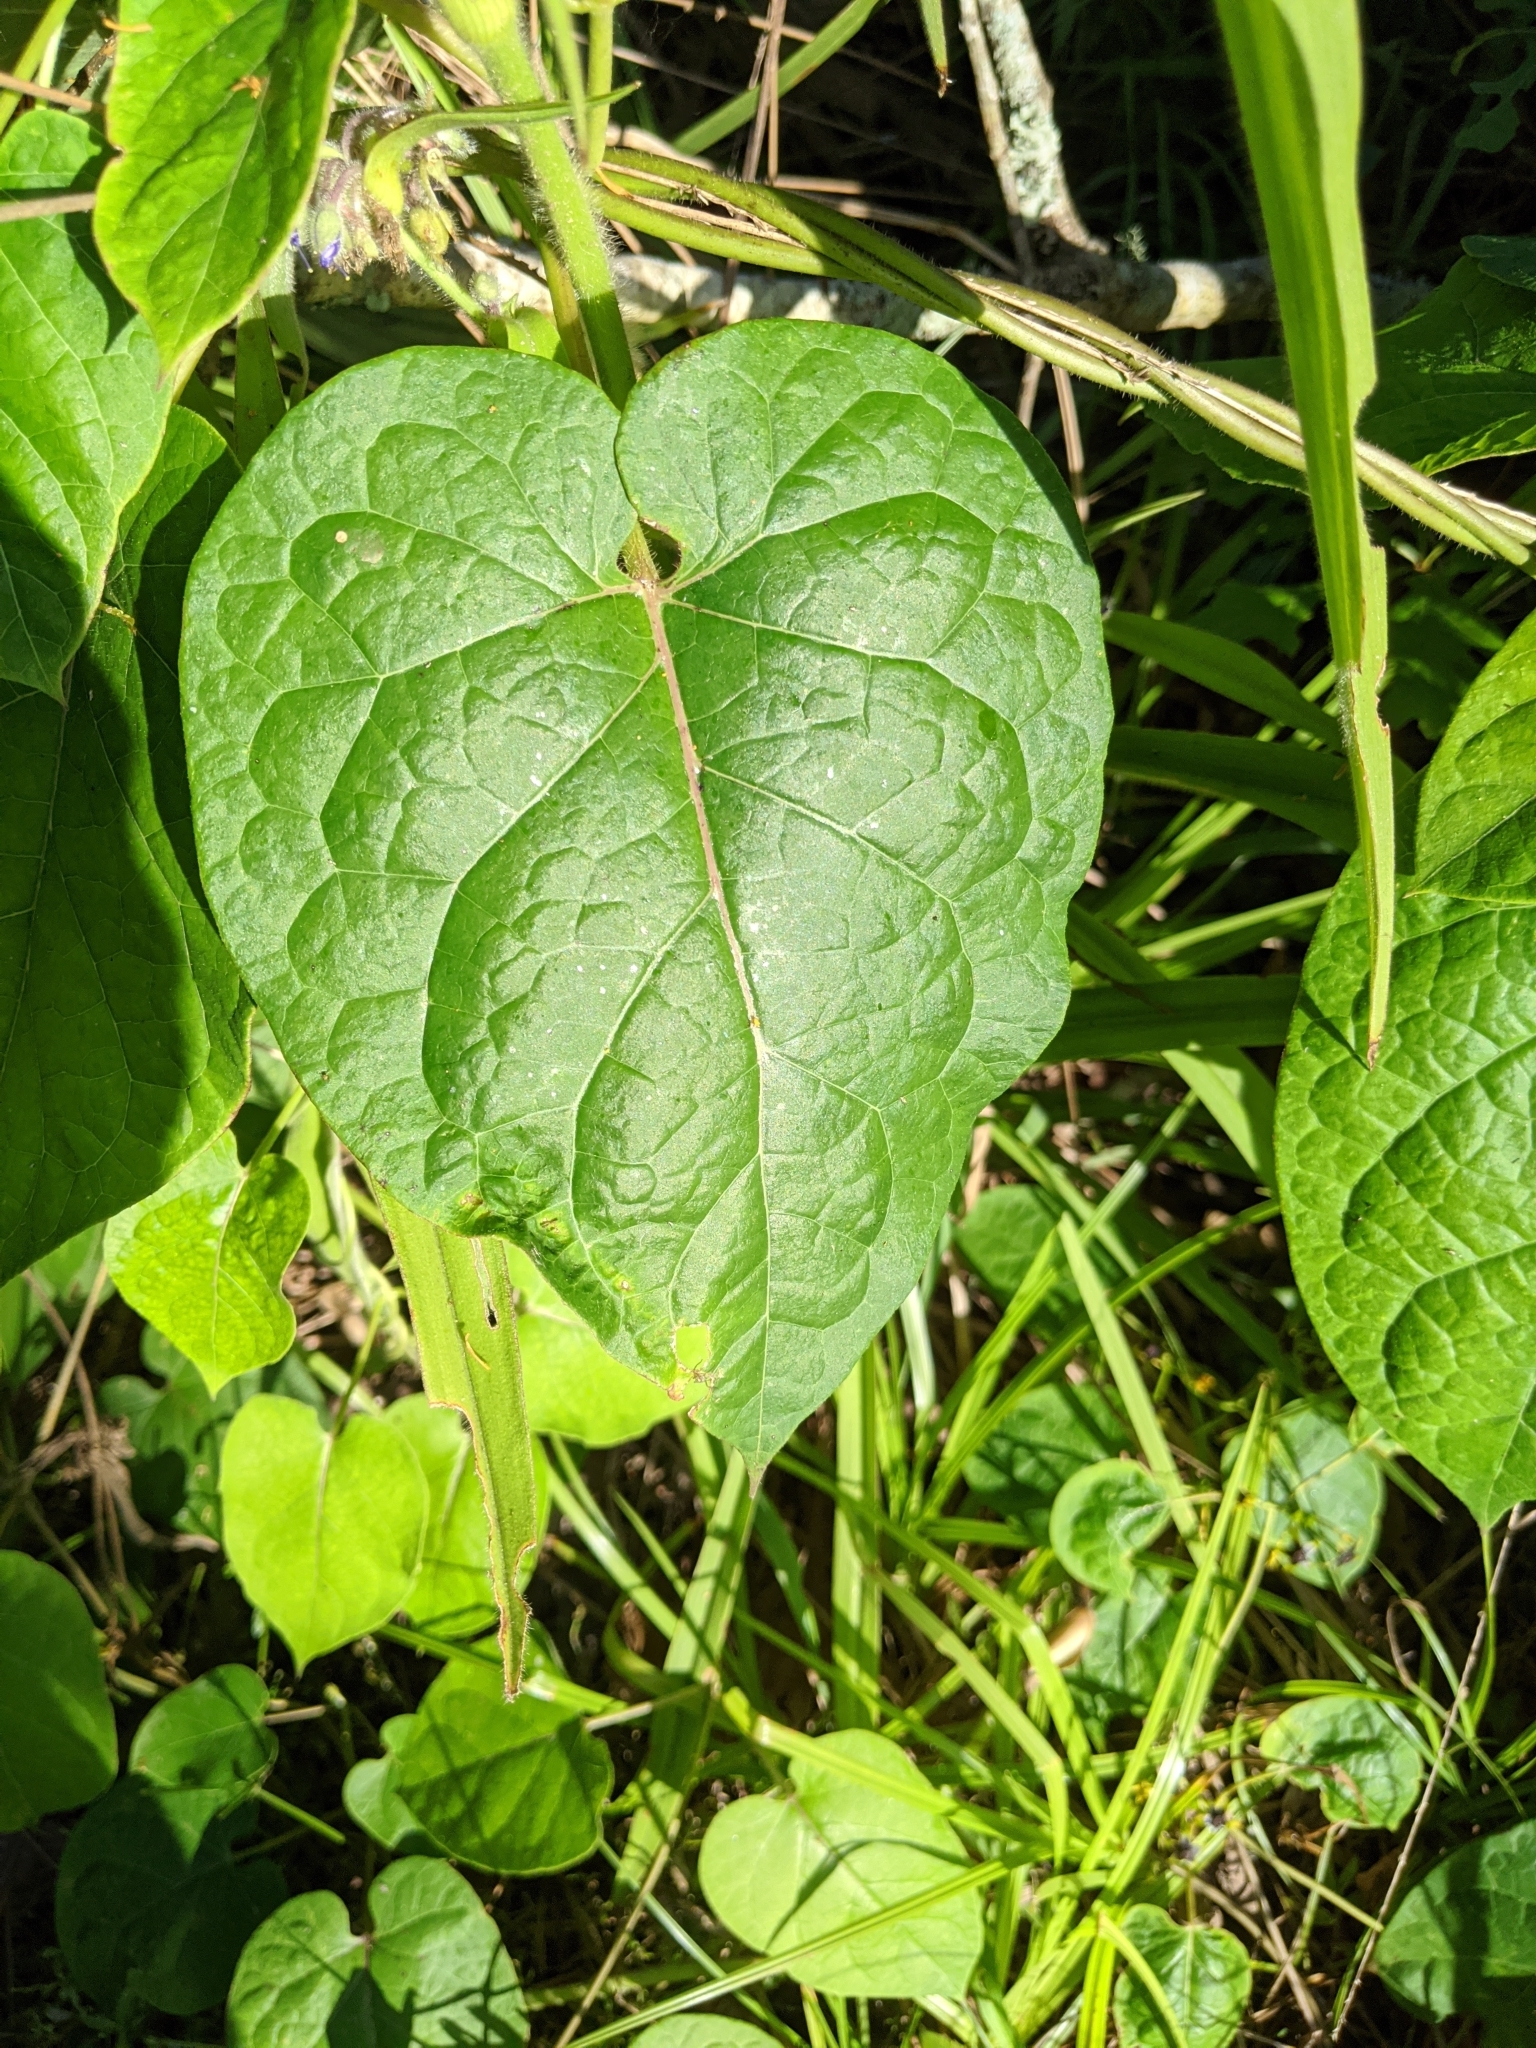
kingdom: Plantae
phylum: Tracheophyta
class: Magnoliopsida
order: Gentianales
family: Apocynaceae
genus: Gonolobus
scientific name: Gonolobus suberosus
